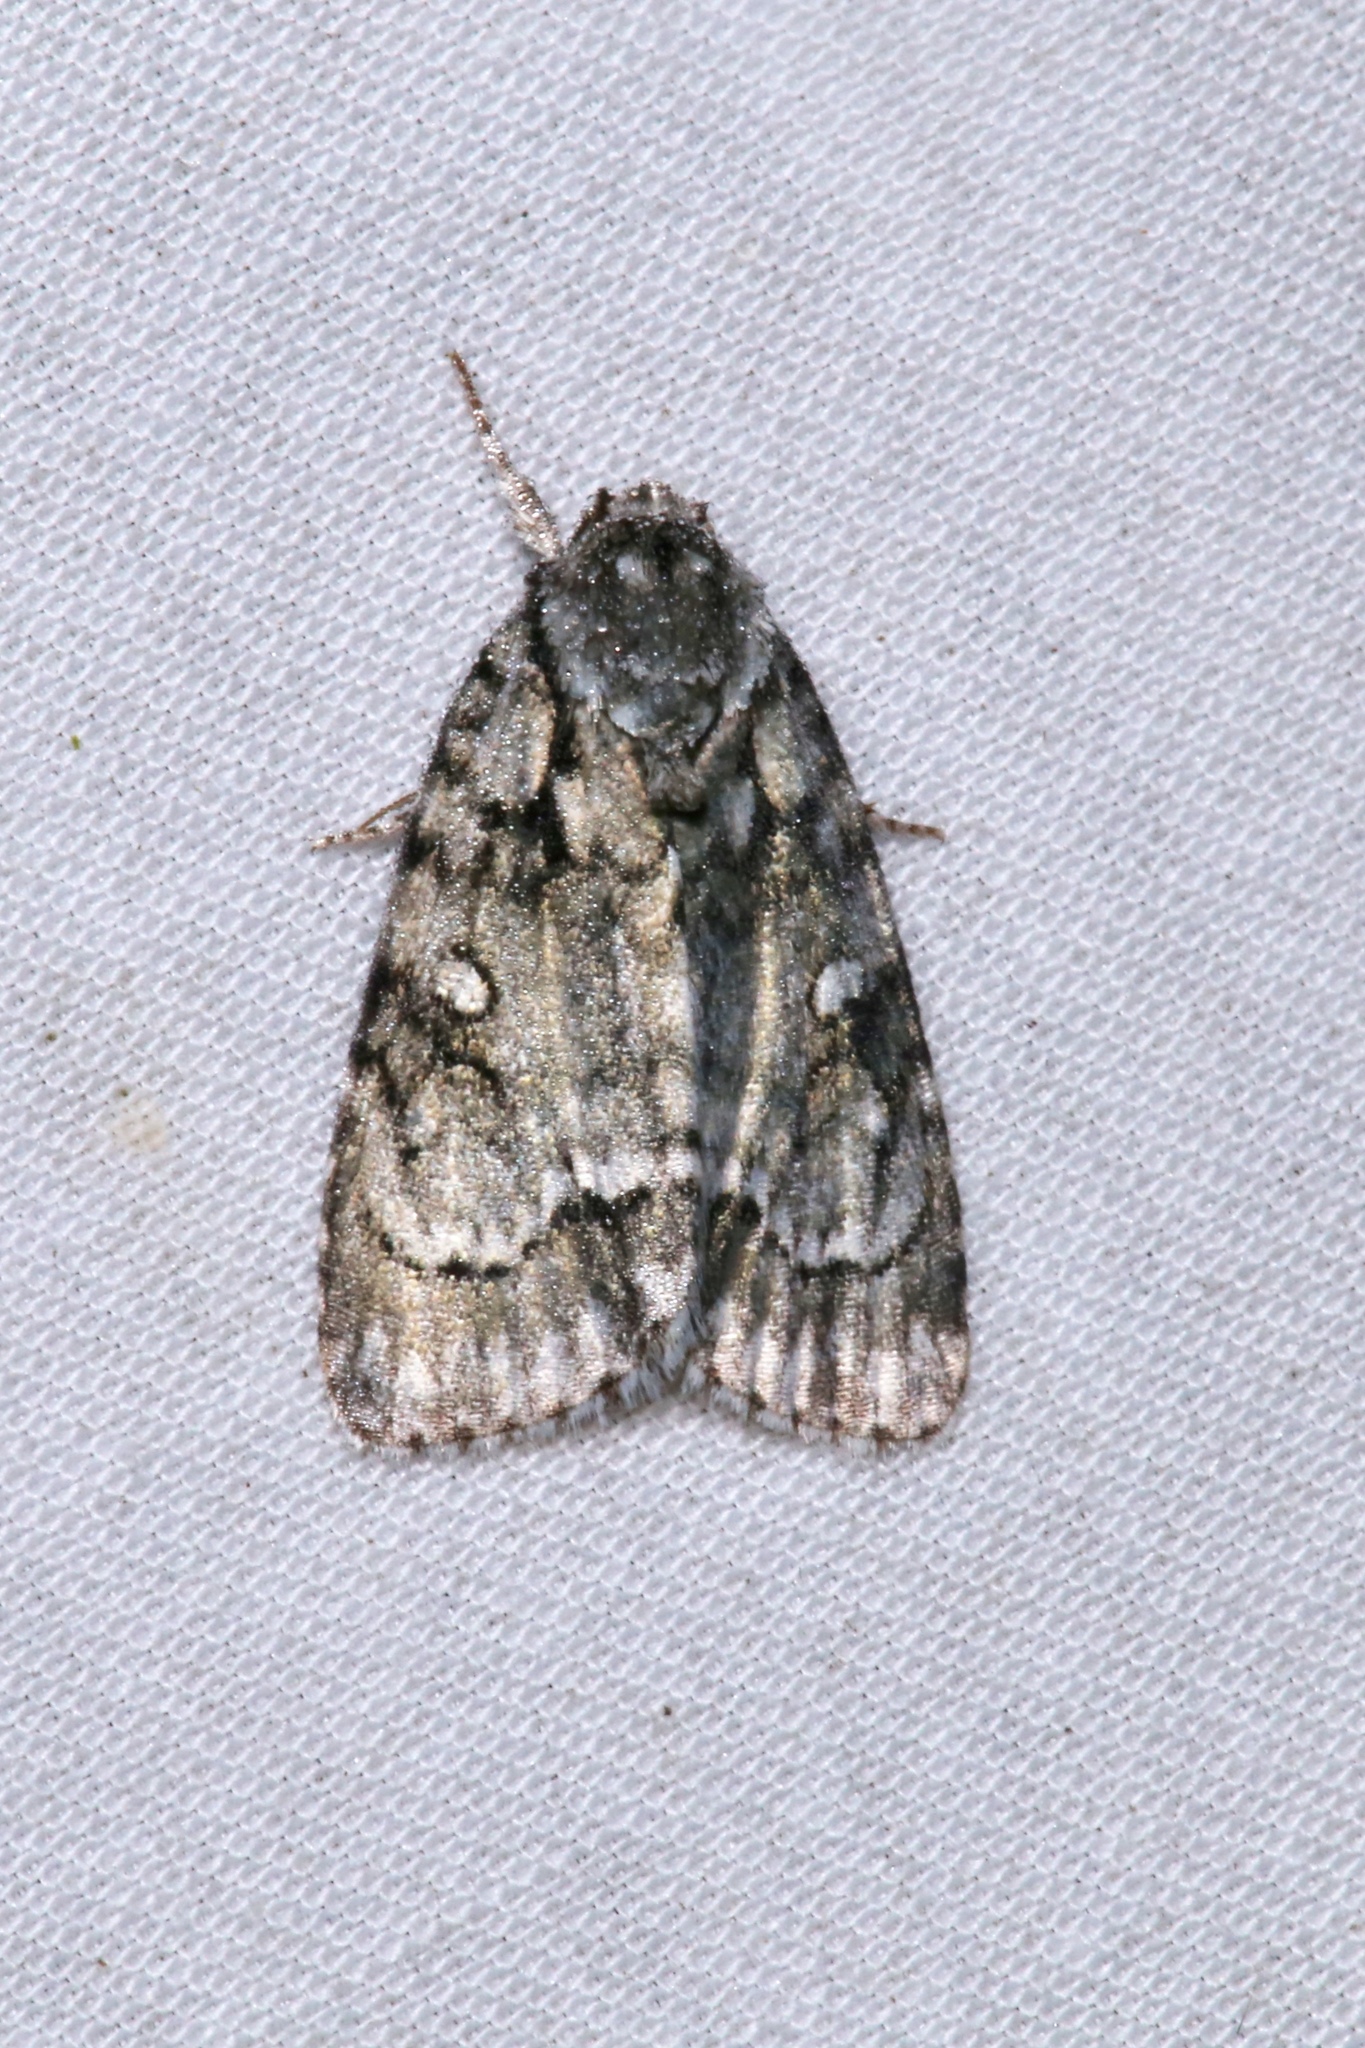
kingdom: Animalia
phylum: Arthropoda
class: Insecta
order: Lepidoptera
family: Noctuidae
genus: Acronicta
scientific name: Acronicta vinnula
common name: Delightful dagger
